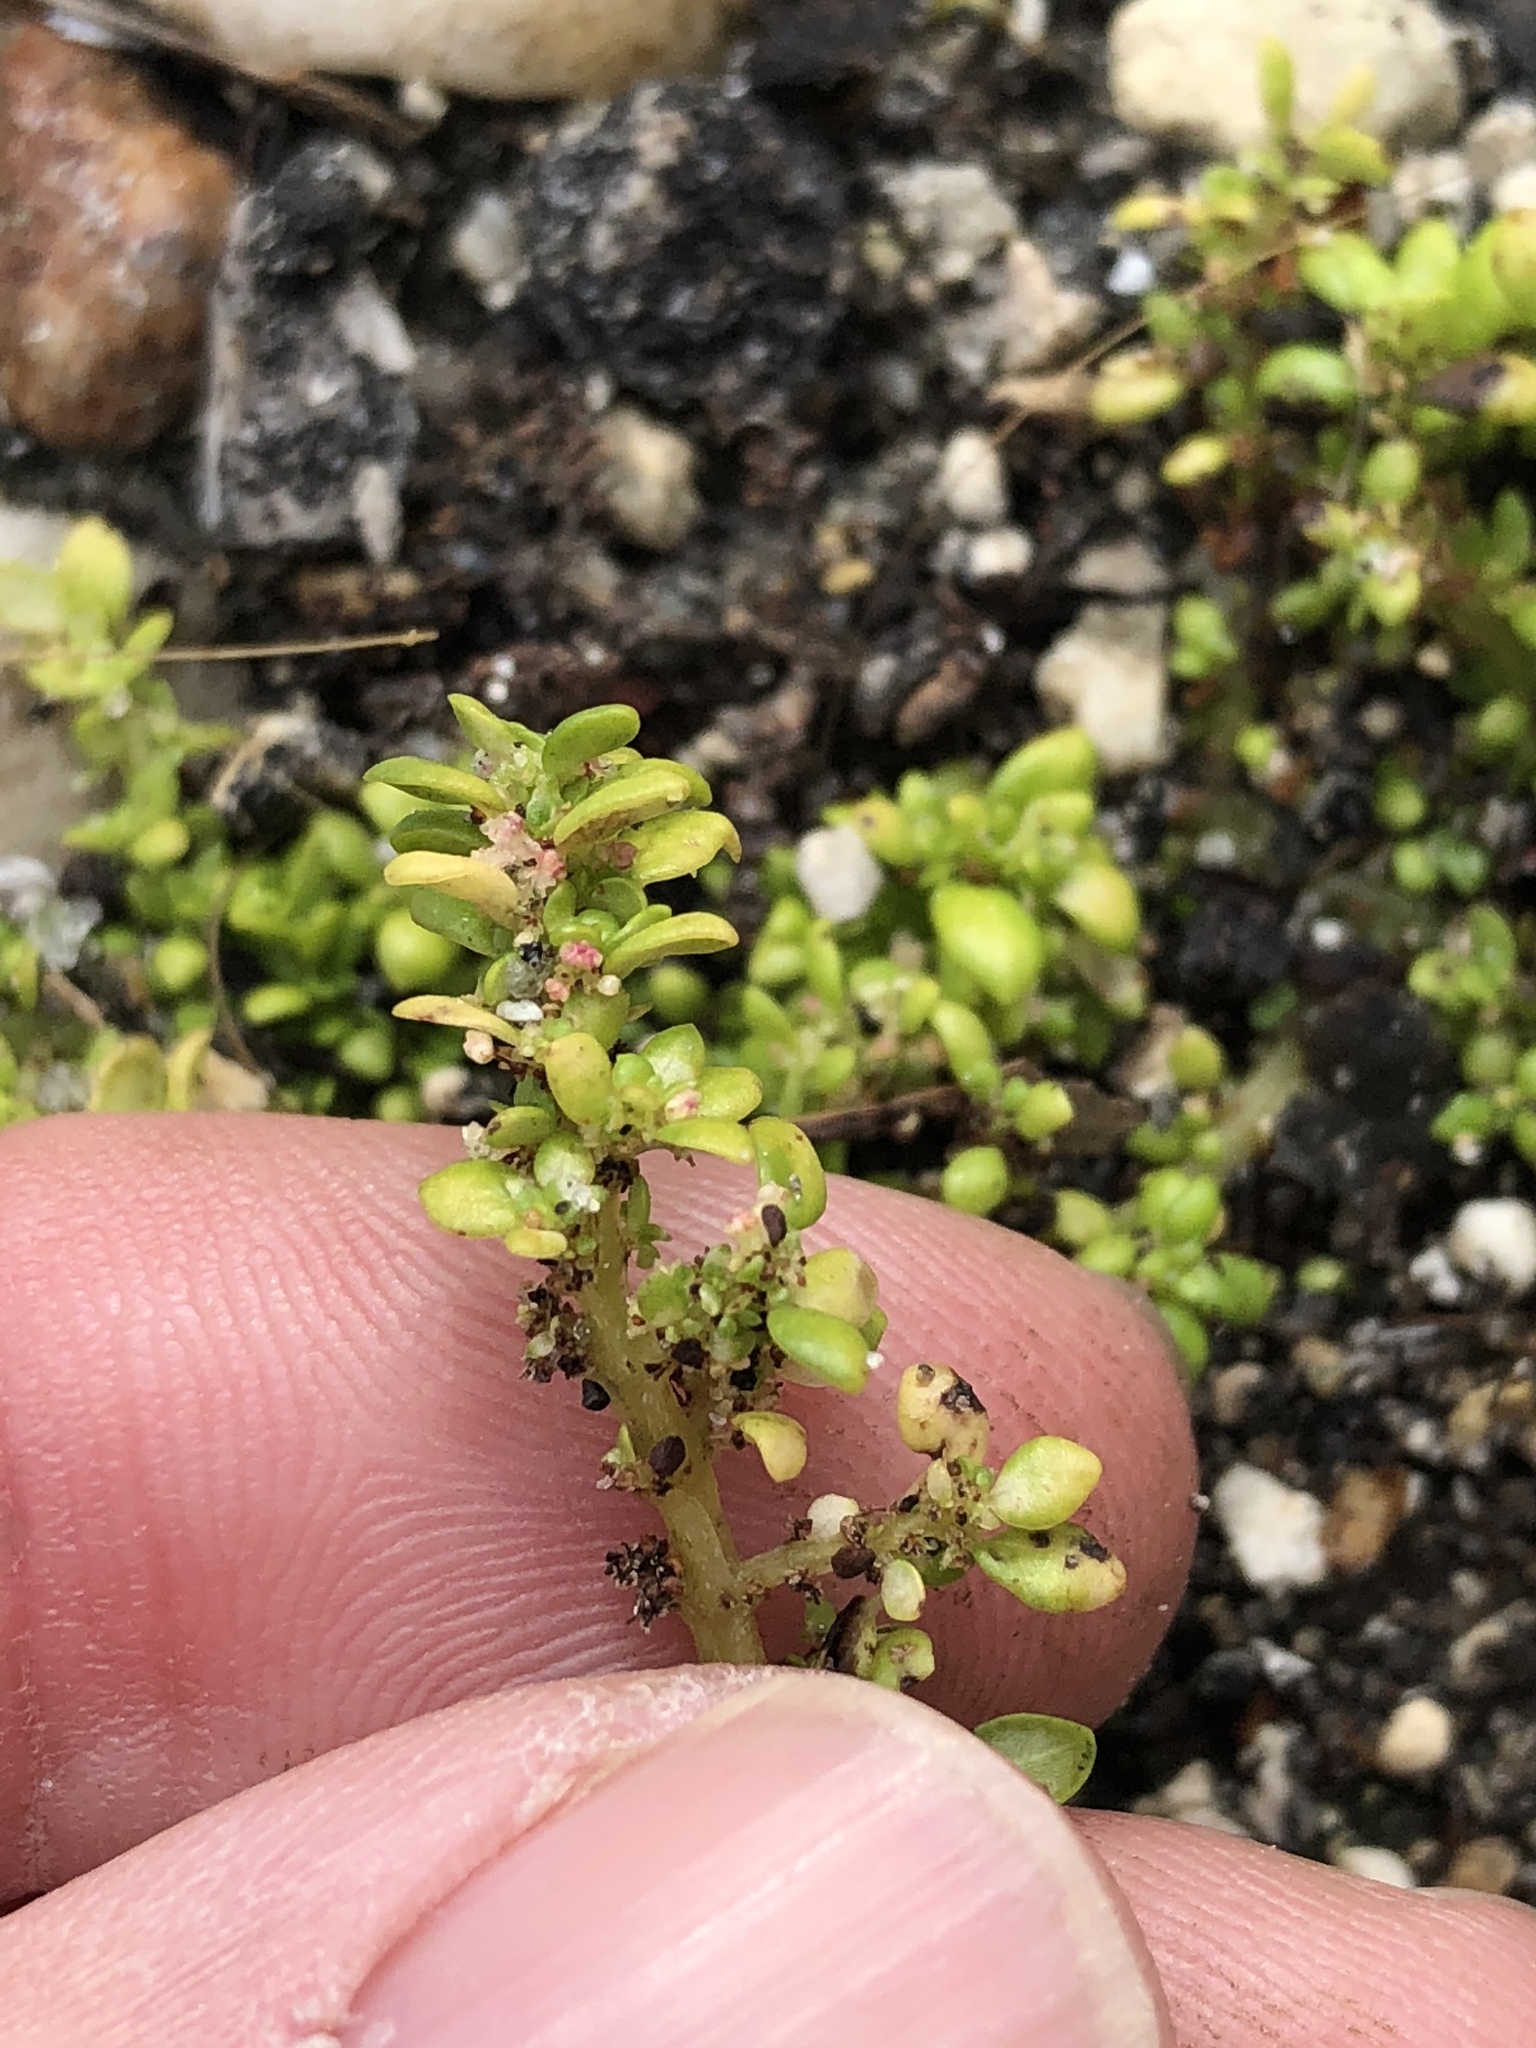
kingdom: Plantae
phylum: Tracheophyta
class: Magnoliopsida
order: Rosales
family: Urticaceae
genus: Pilea
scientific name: Pilea microphylla
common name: Artillery-plant
